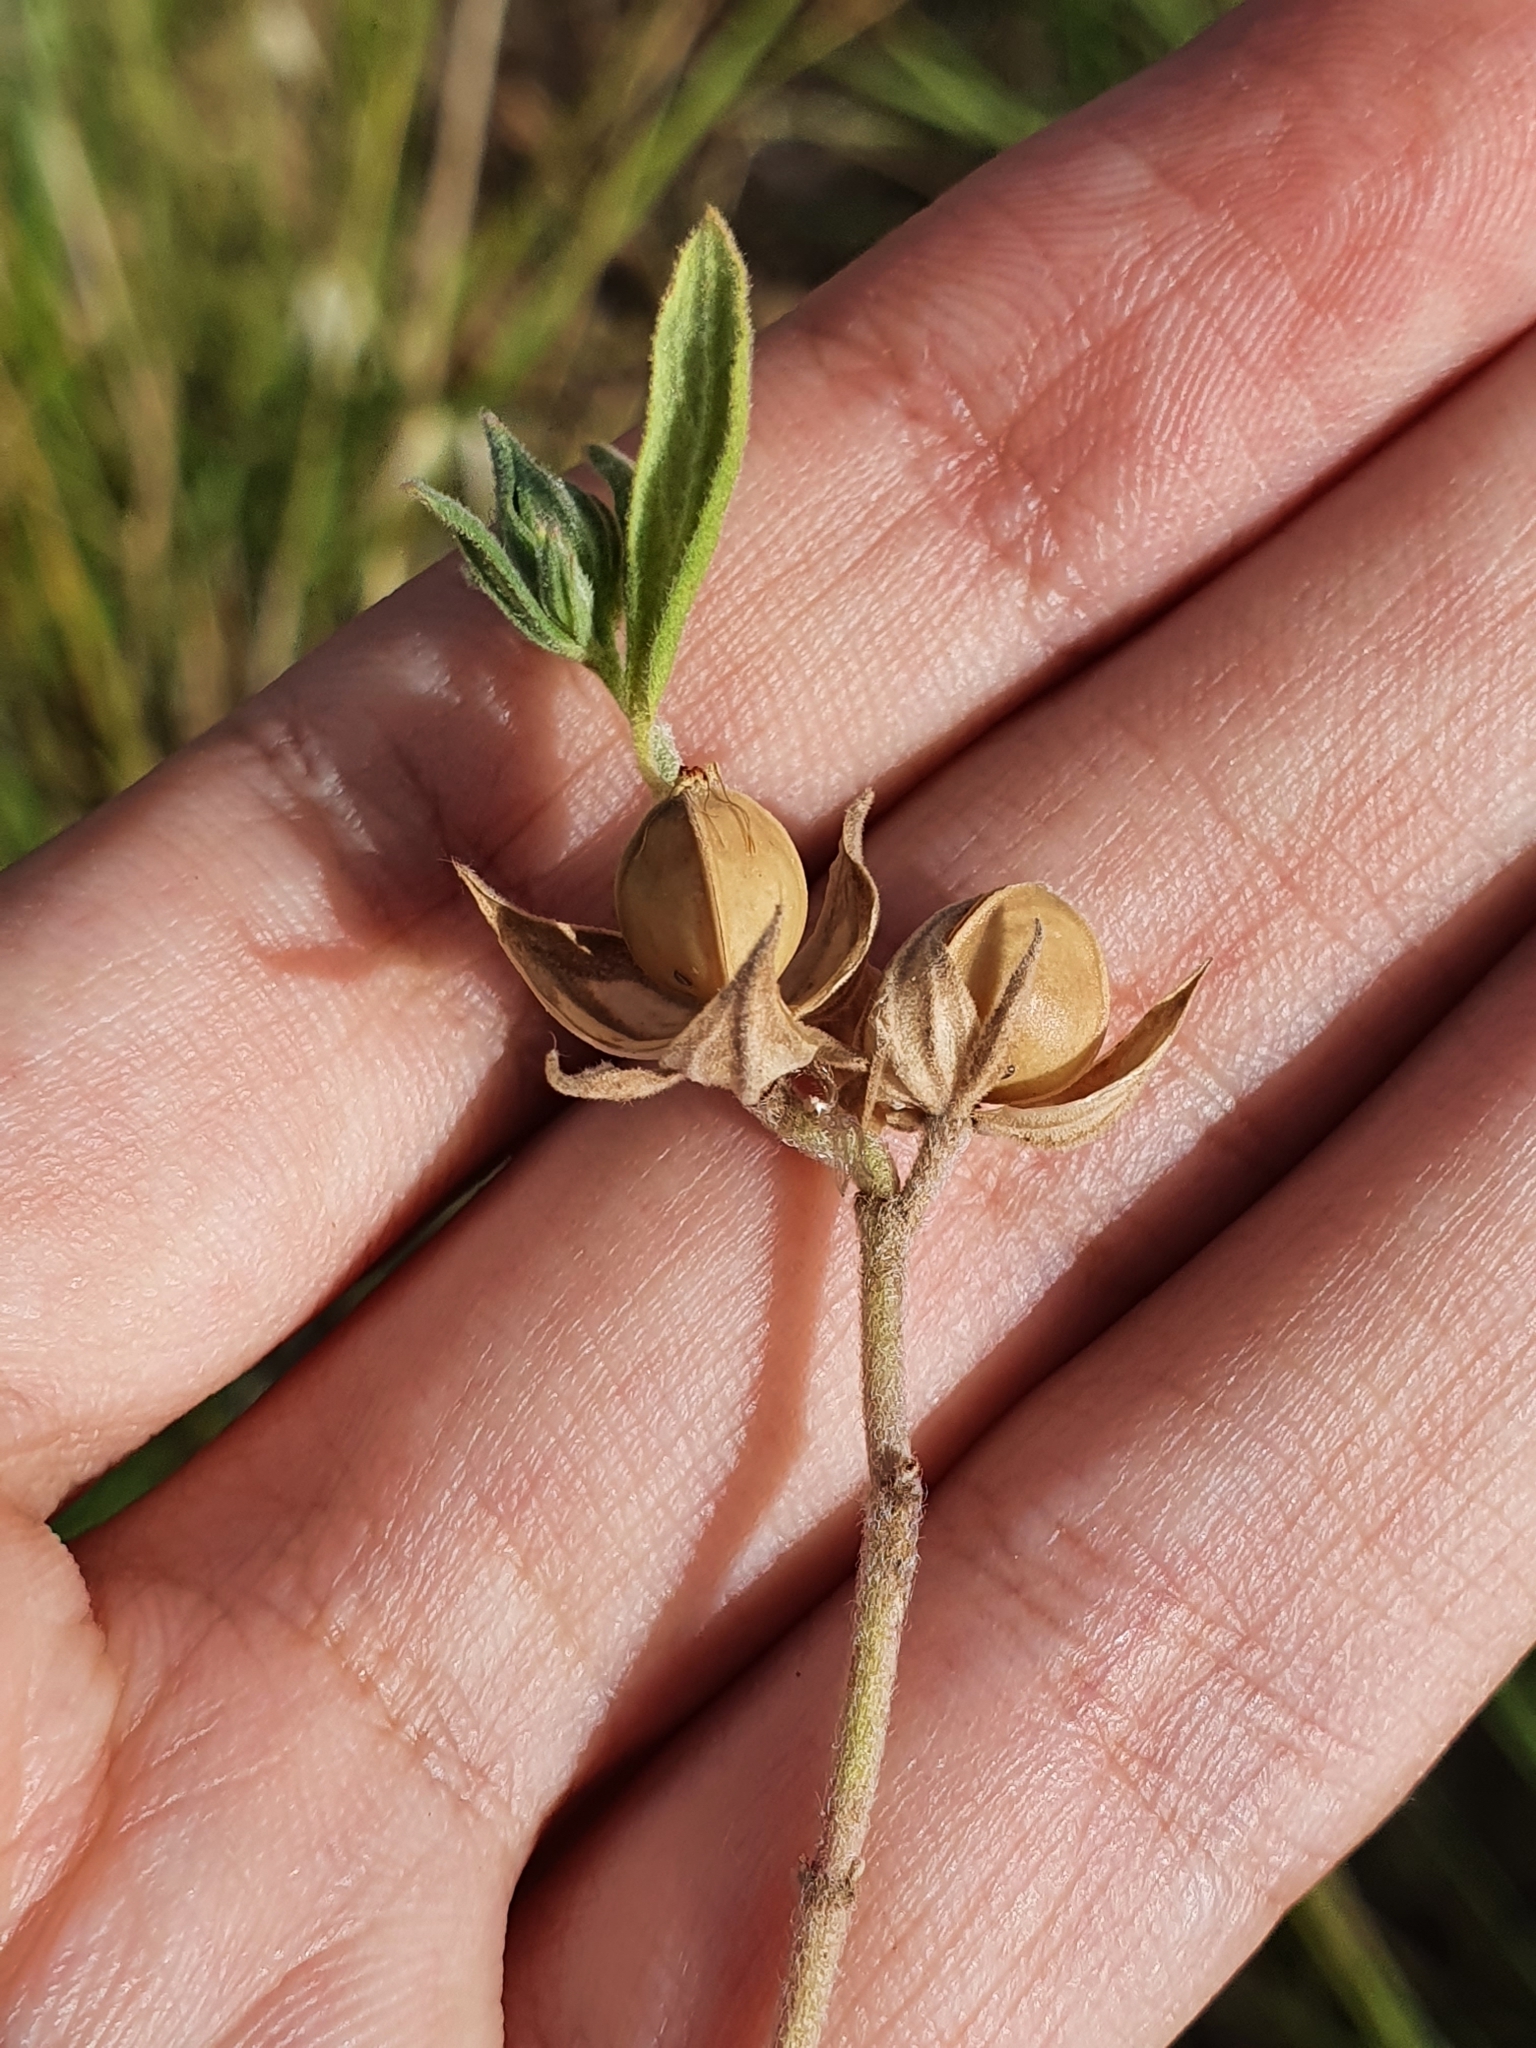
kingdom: Plantae
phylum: Tracheophyta
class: Magnoliopsida
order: Malvales
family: Cistaceae
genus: Helianthemum
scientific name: Helianthemum ledifolium
